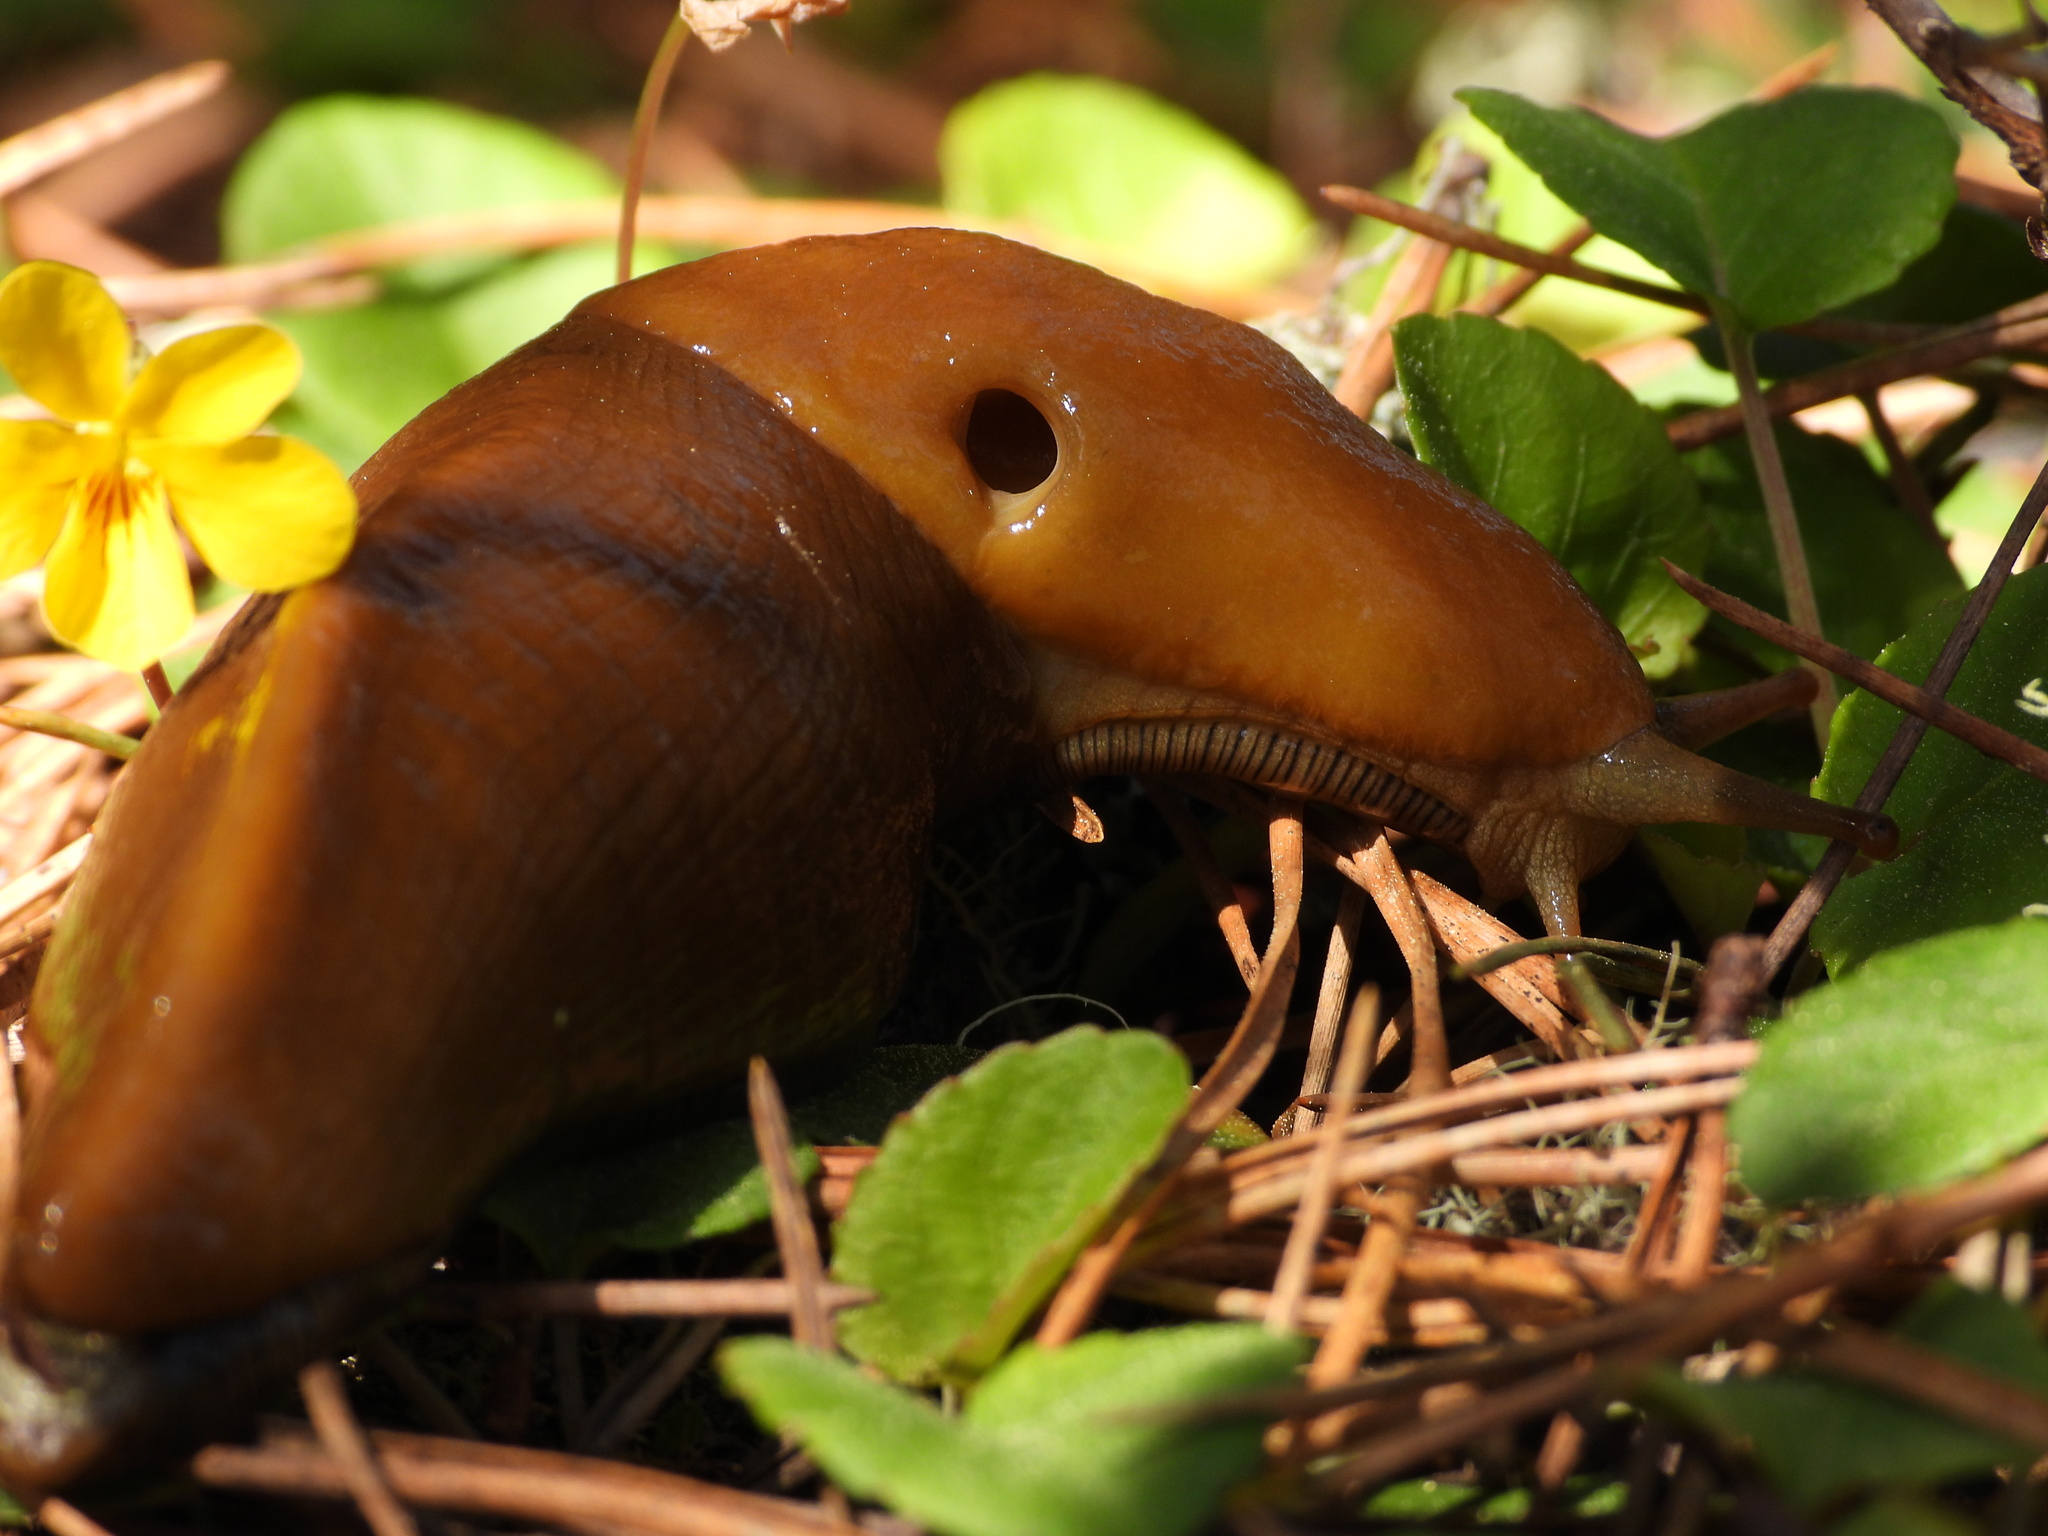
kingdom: Animalia
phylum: Mollusca
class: Gastropoda
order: Stylommatophora
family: Ariolimacidae
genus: Ariolimax
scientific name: Ariolimax buttoni
